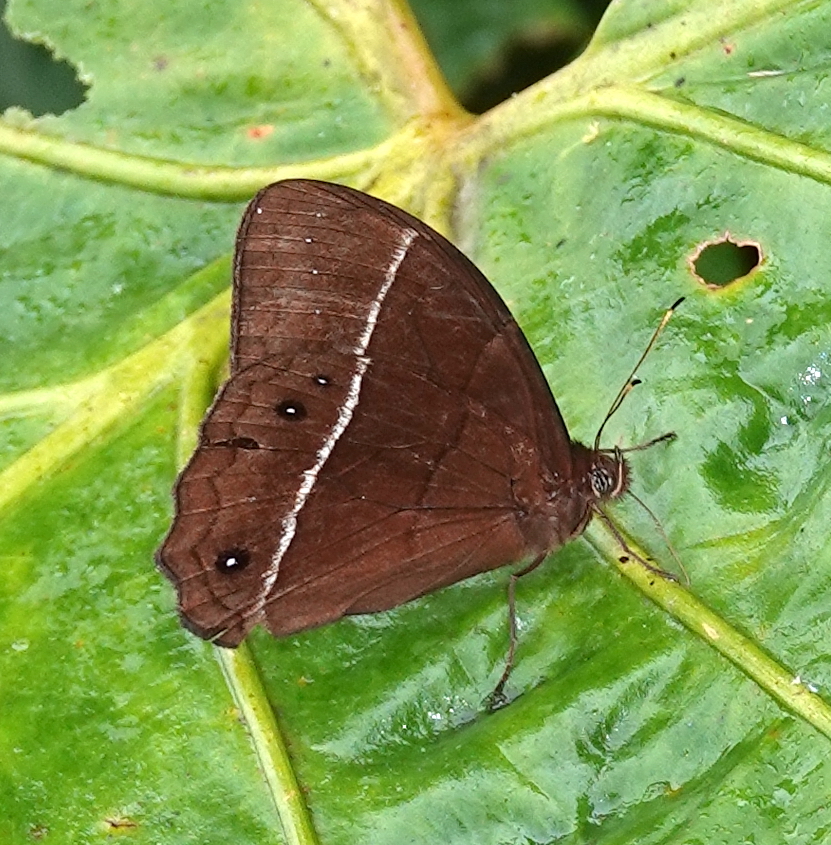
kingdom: Animalia
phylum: Arthropoda
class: Insecta
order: Lepidoptera
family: Nymphalidae
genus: Parataygetis
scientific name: Parataygetis lineata
